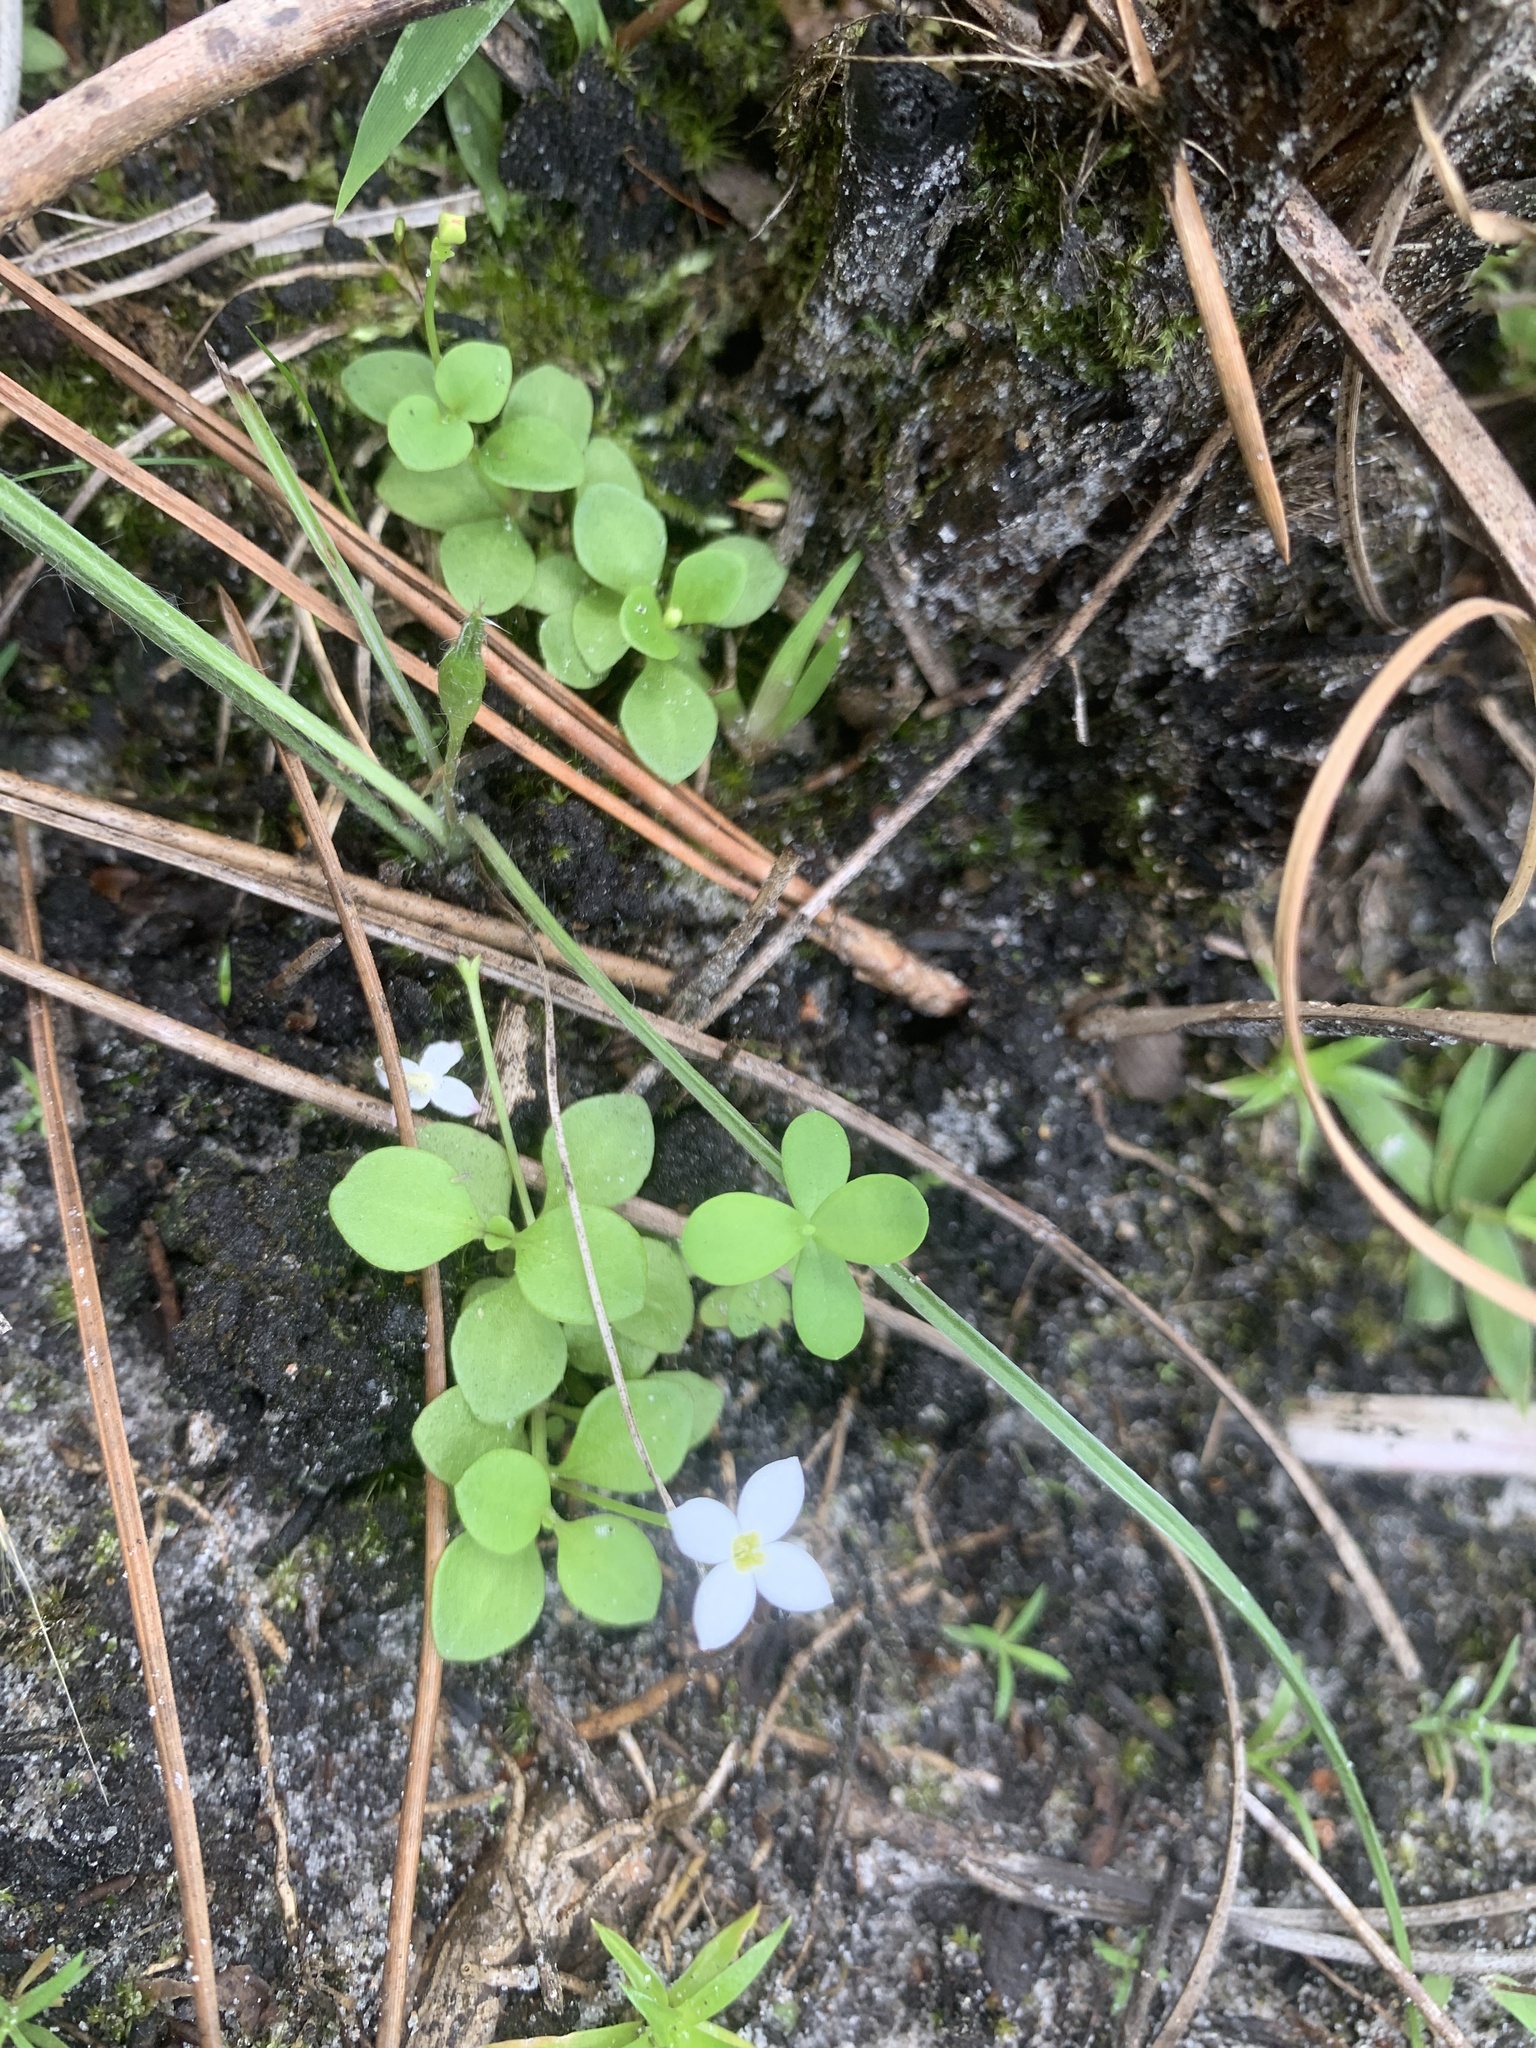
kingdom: Plantae
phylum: Tracheophyta
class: Magnoliopsida
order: Gentianales
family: Rubiaceae
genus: Houstonia
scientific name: Houstonia procumbens
